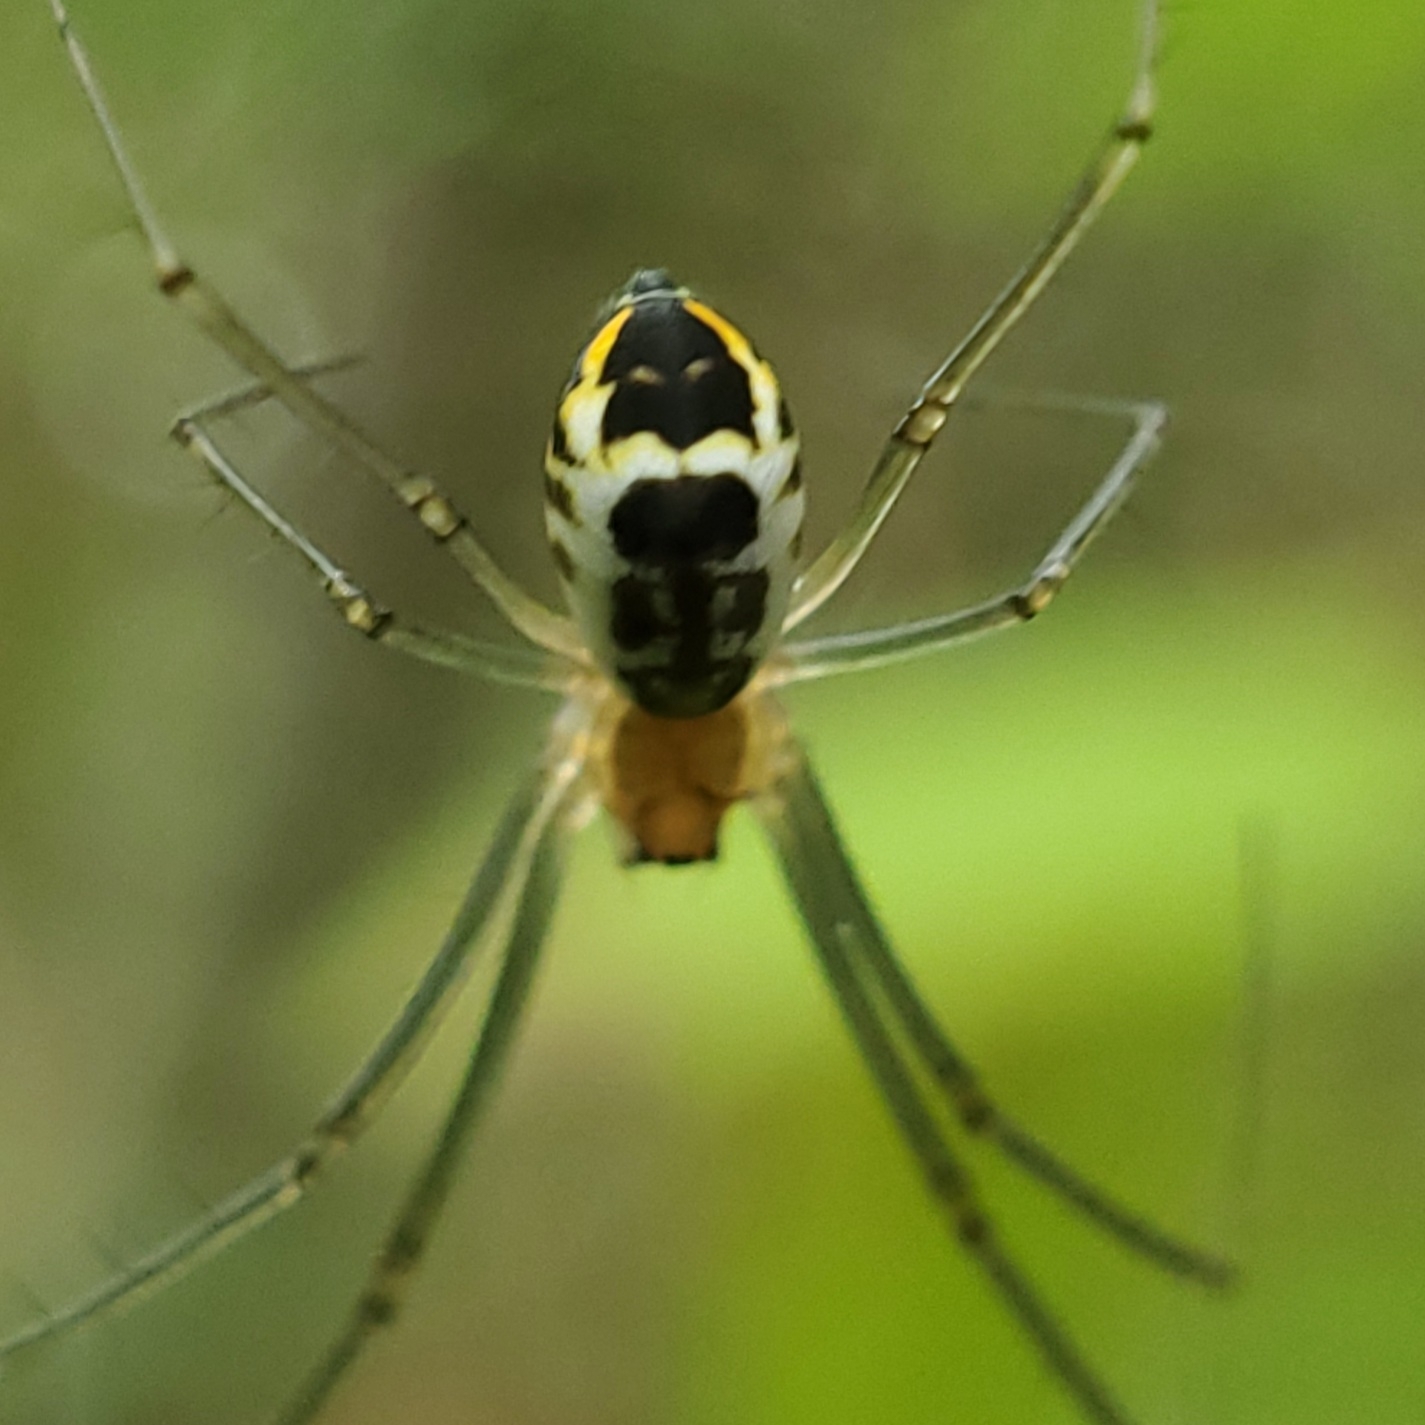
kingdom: Animalia
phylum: Arthropoda
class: Arachnida
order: Araneae
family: Linyphiidae
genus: Neriene
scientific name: Neriene radiata
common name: Filmy dome spider
